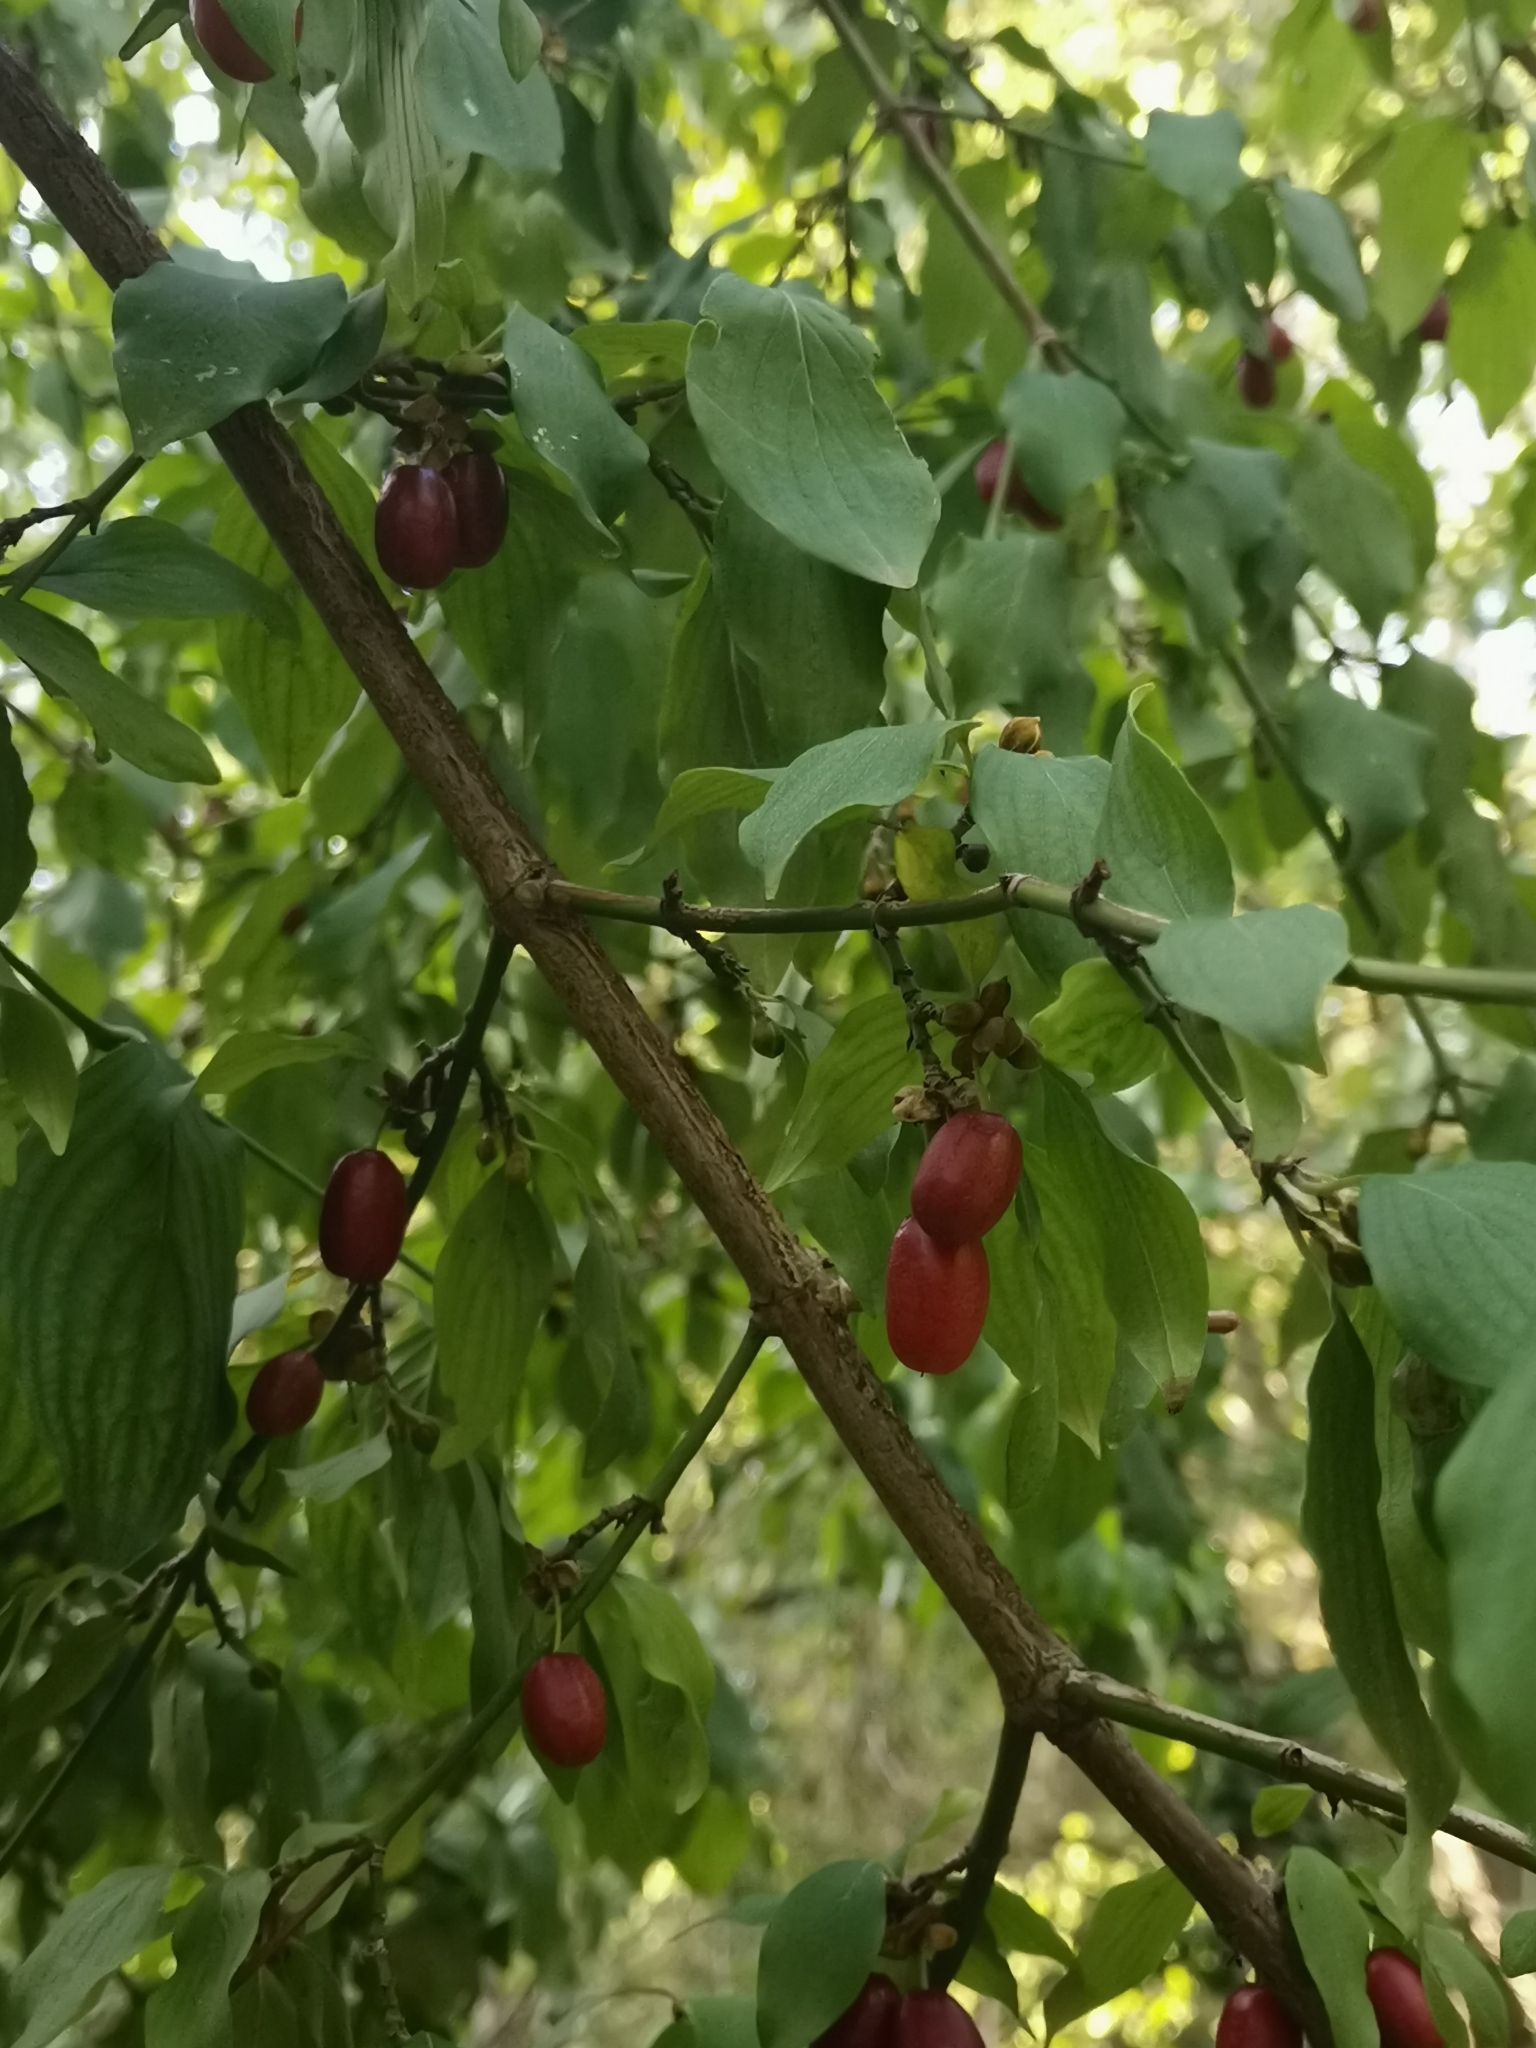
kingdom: Plantae
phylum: Tracheophyta
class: Magnoliopsida
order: Cornales
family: Cornaceae
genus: Cornus
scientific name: Cornus mas
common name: Cornelian-cherry
